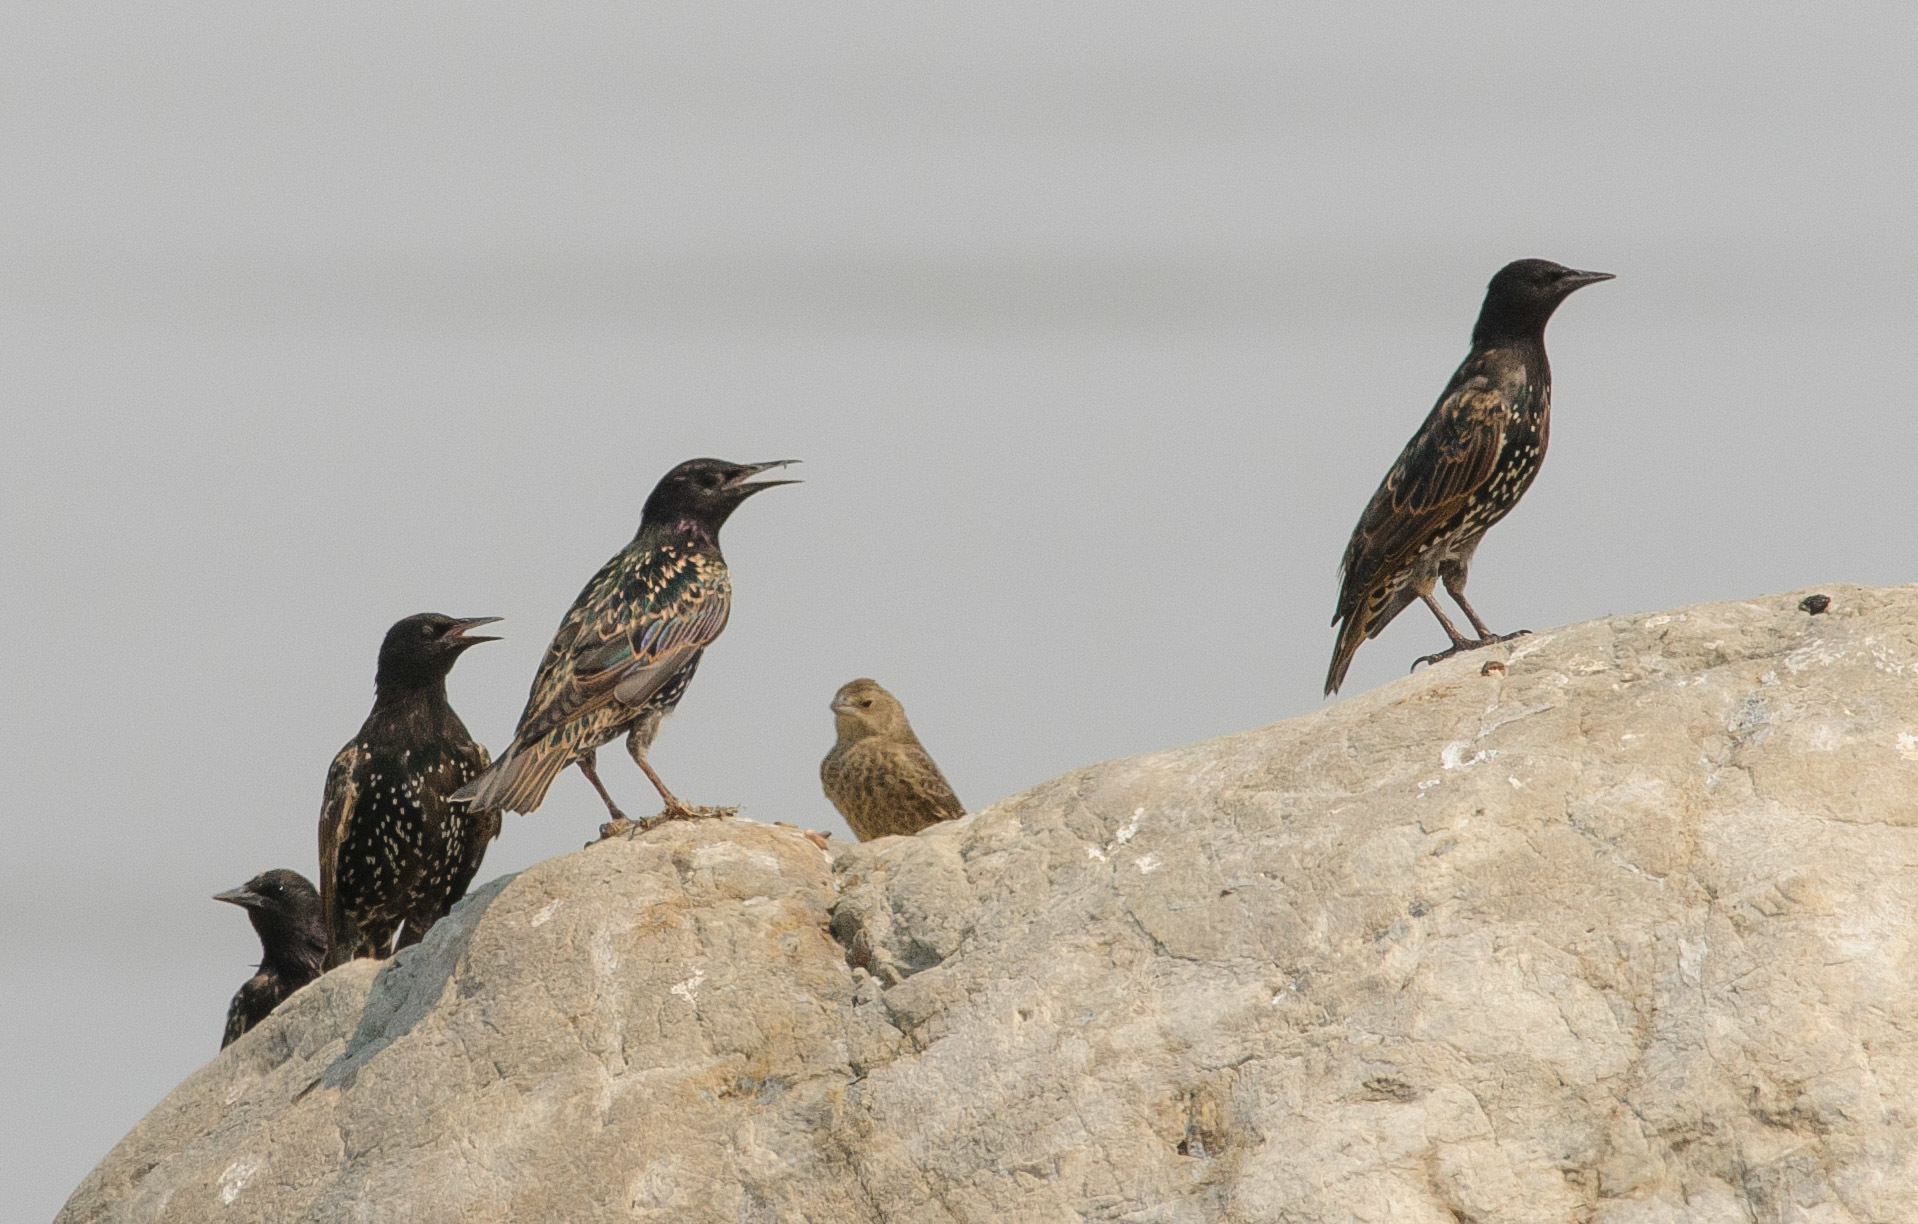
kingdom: Animalia
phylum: Chordata
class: Aves
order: Passeriformes
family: Sturnidae
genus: Sturnus
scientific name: Sturnus vulgaris
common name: Common starling
